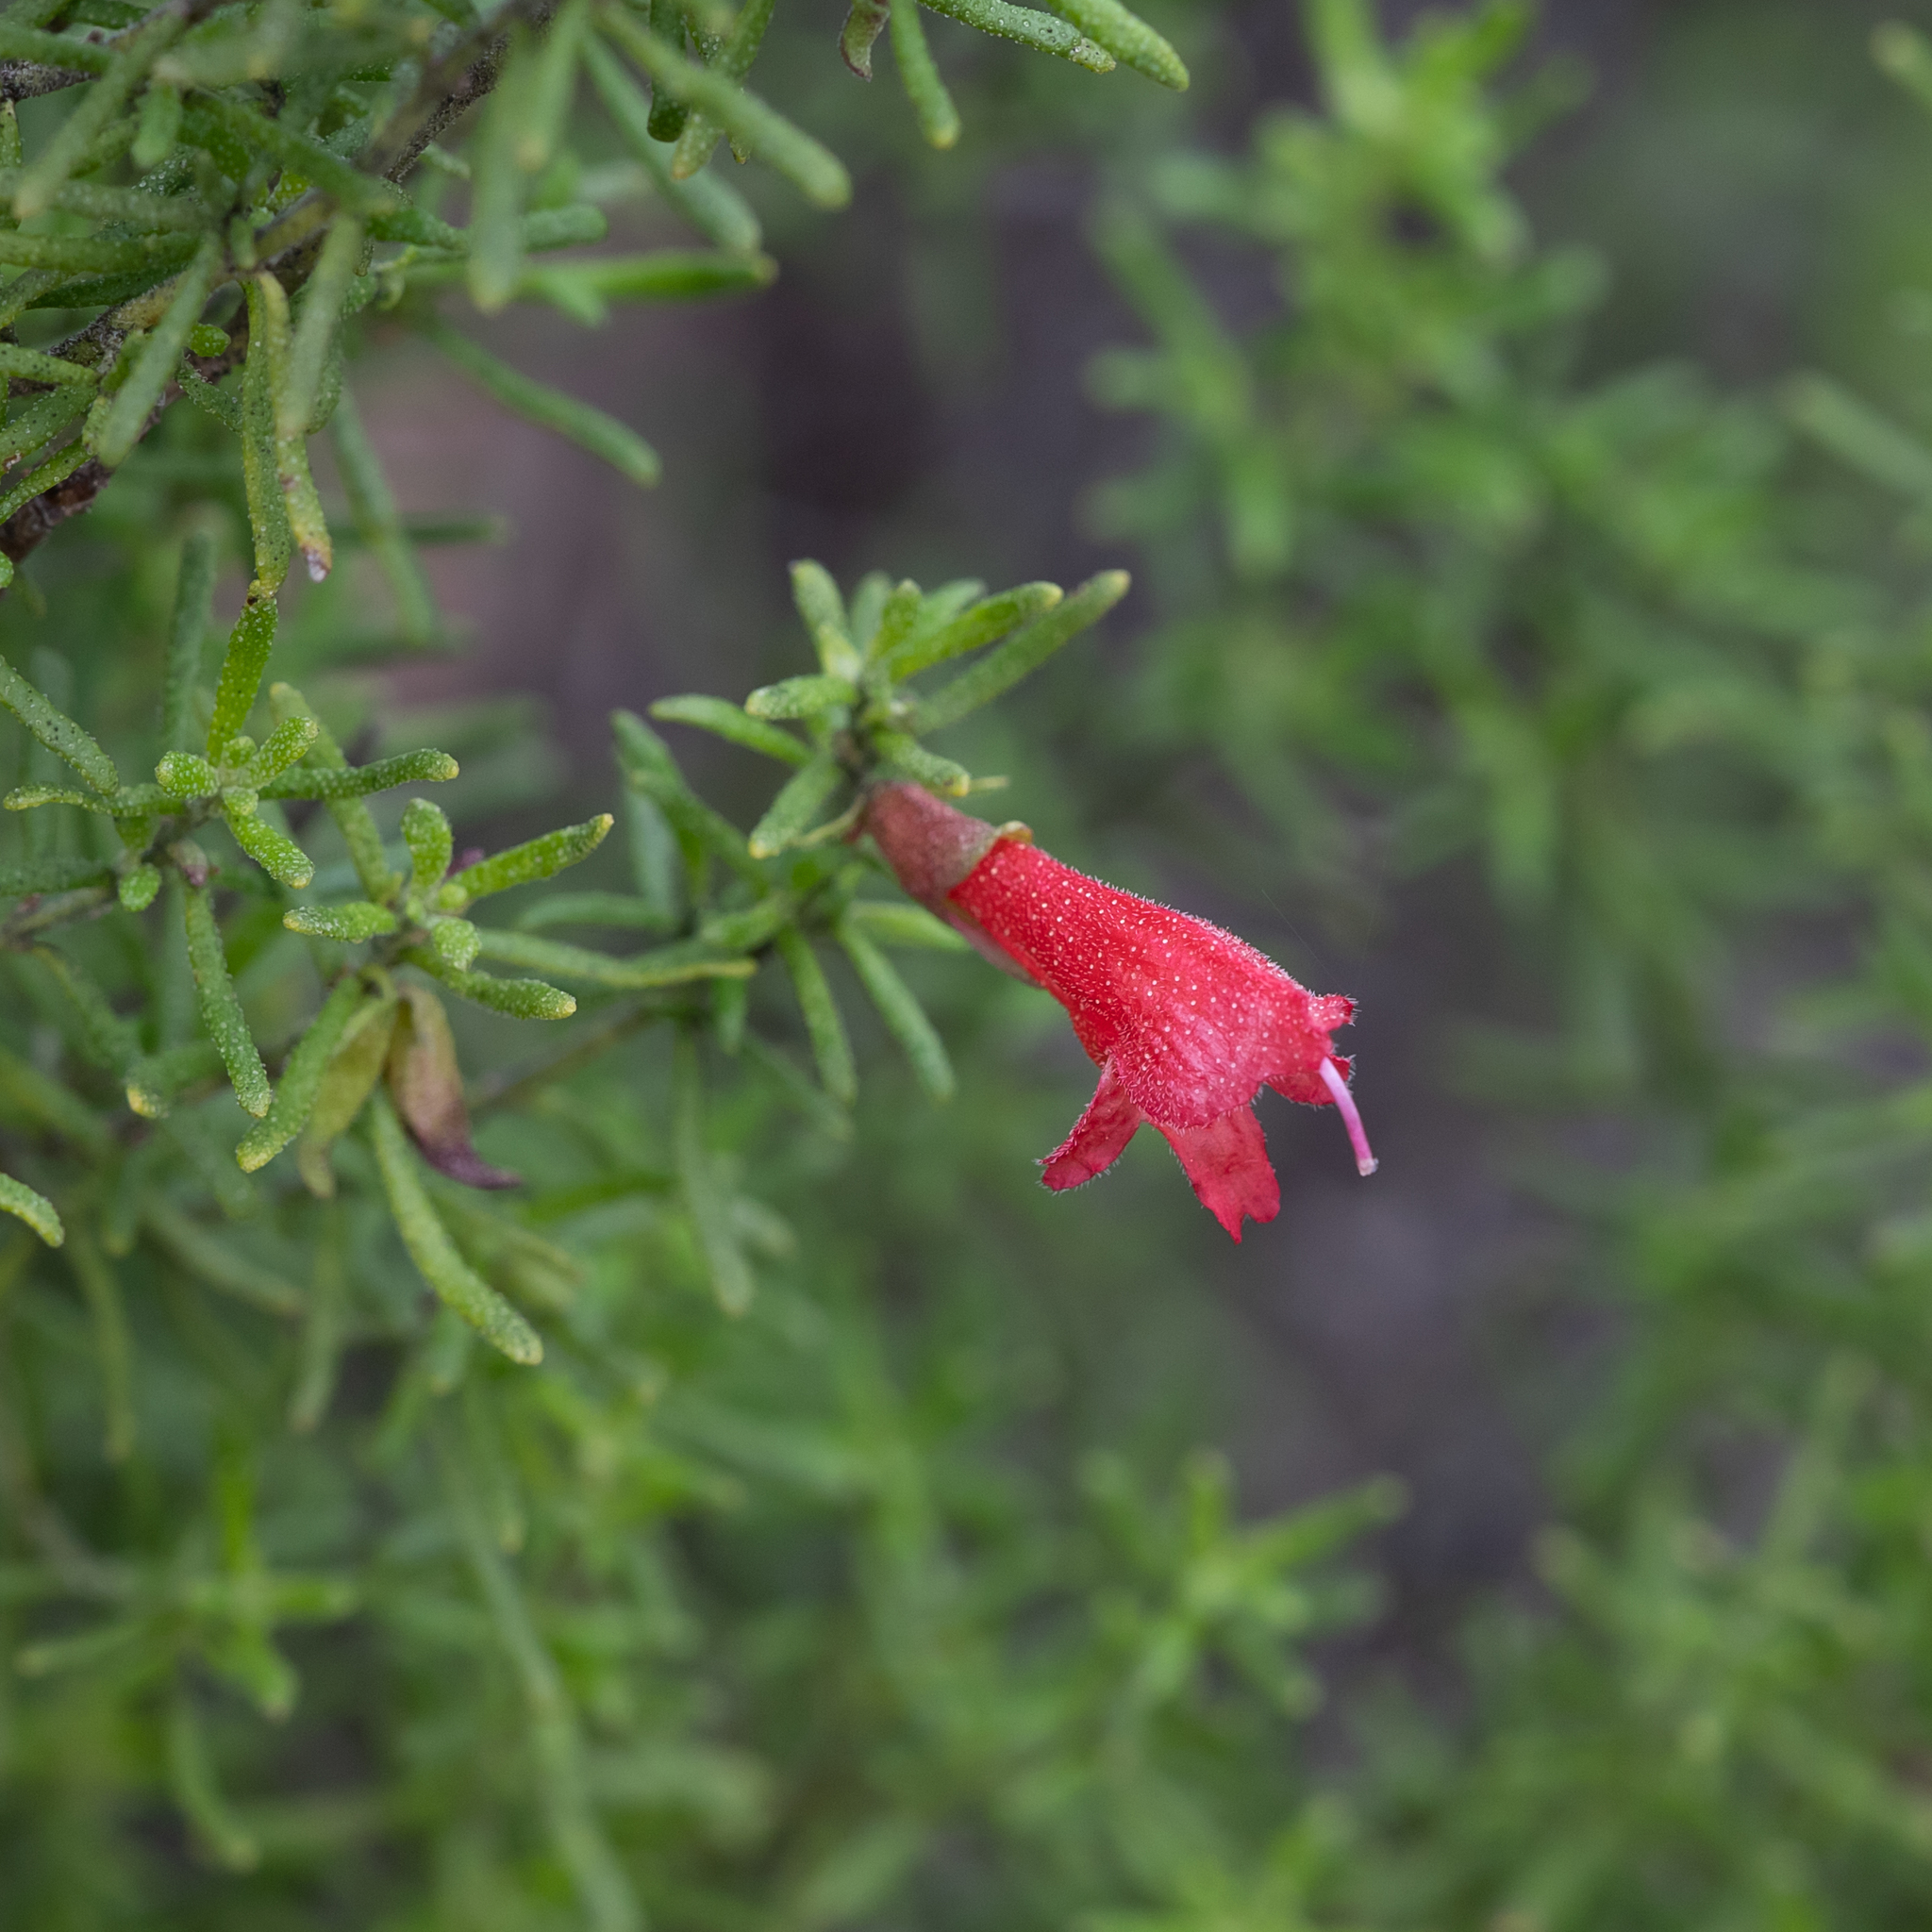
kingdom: Plantae
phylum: Tracheophyta
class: Magnoliopsida
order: Lamiales
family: Lamiaceae
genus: Prostanthera
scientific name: Prostanthera aspalathoides
